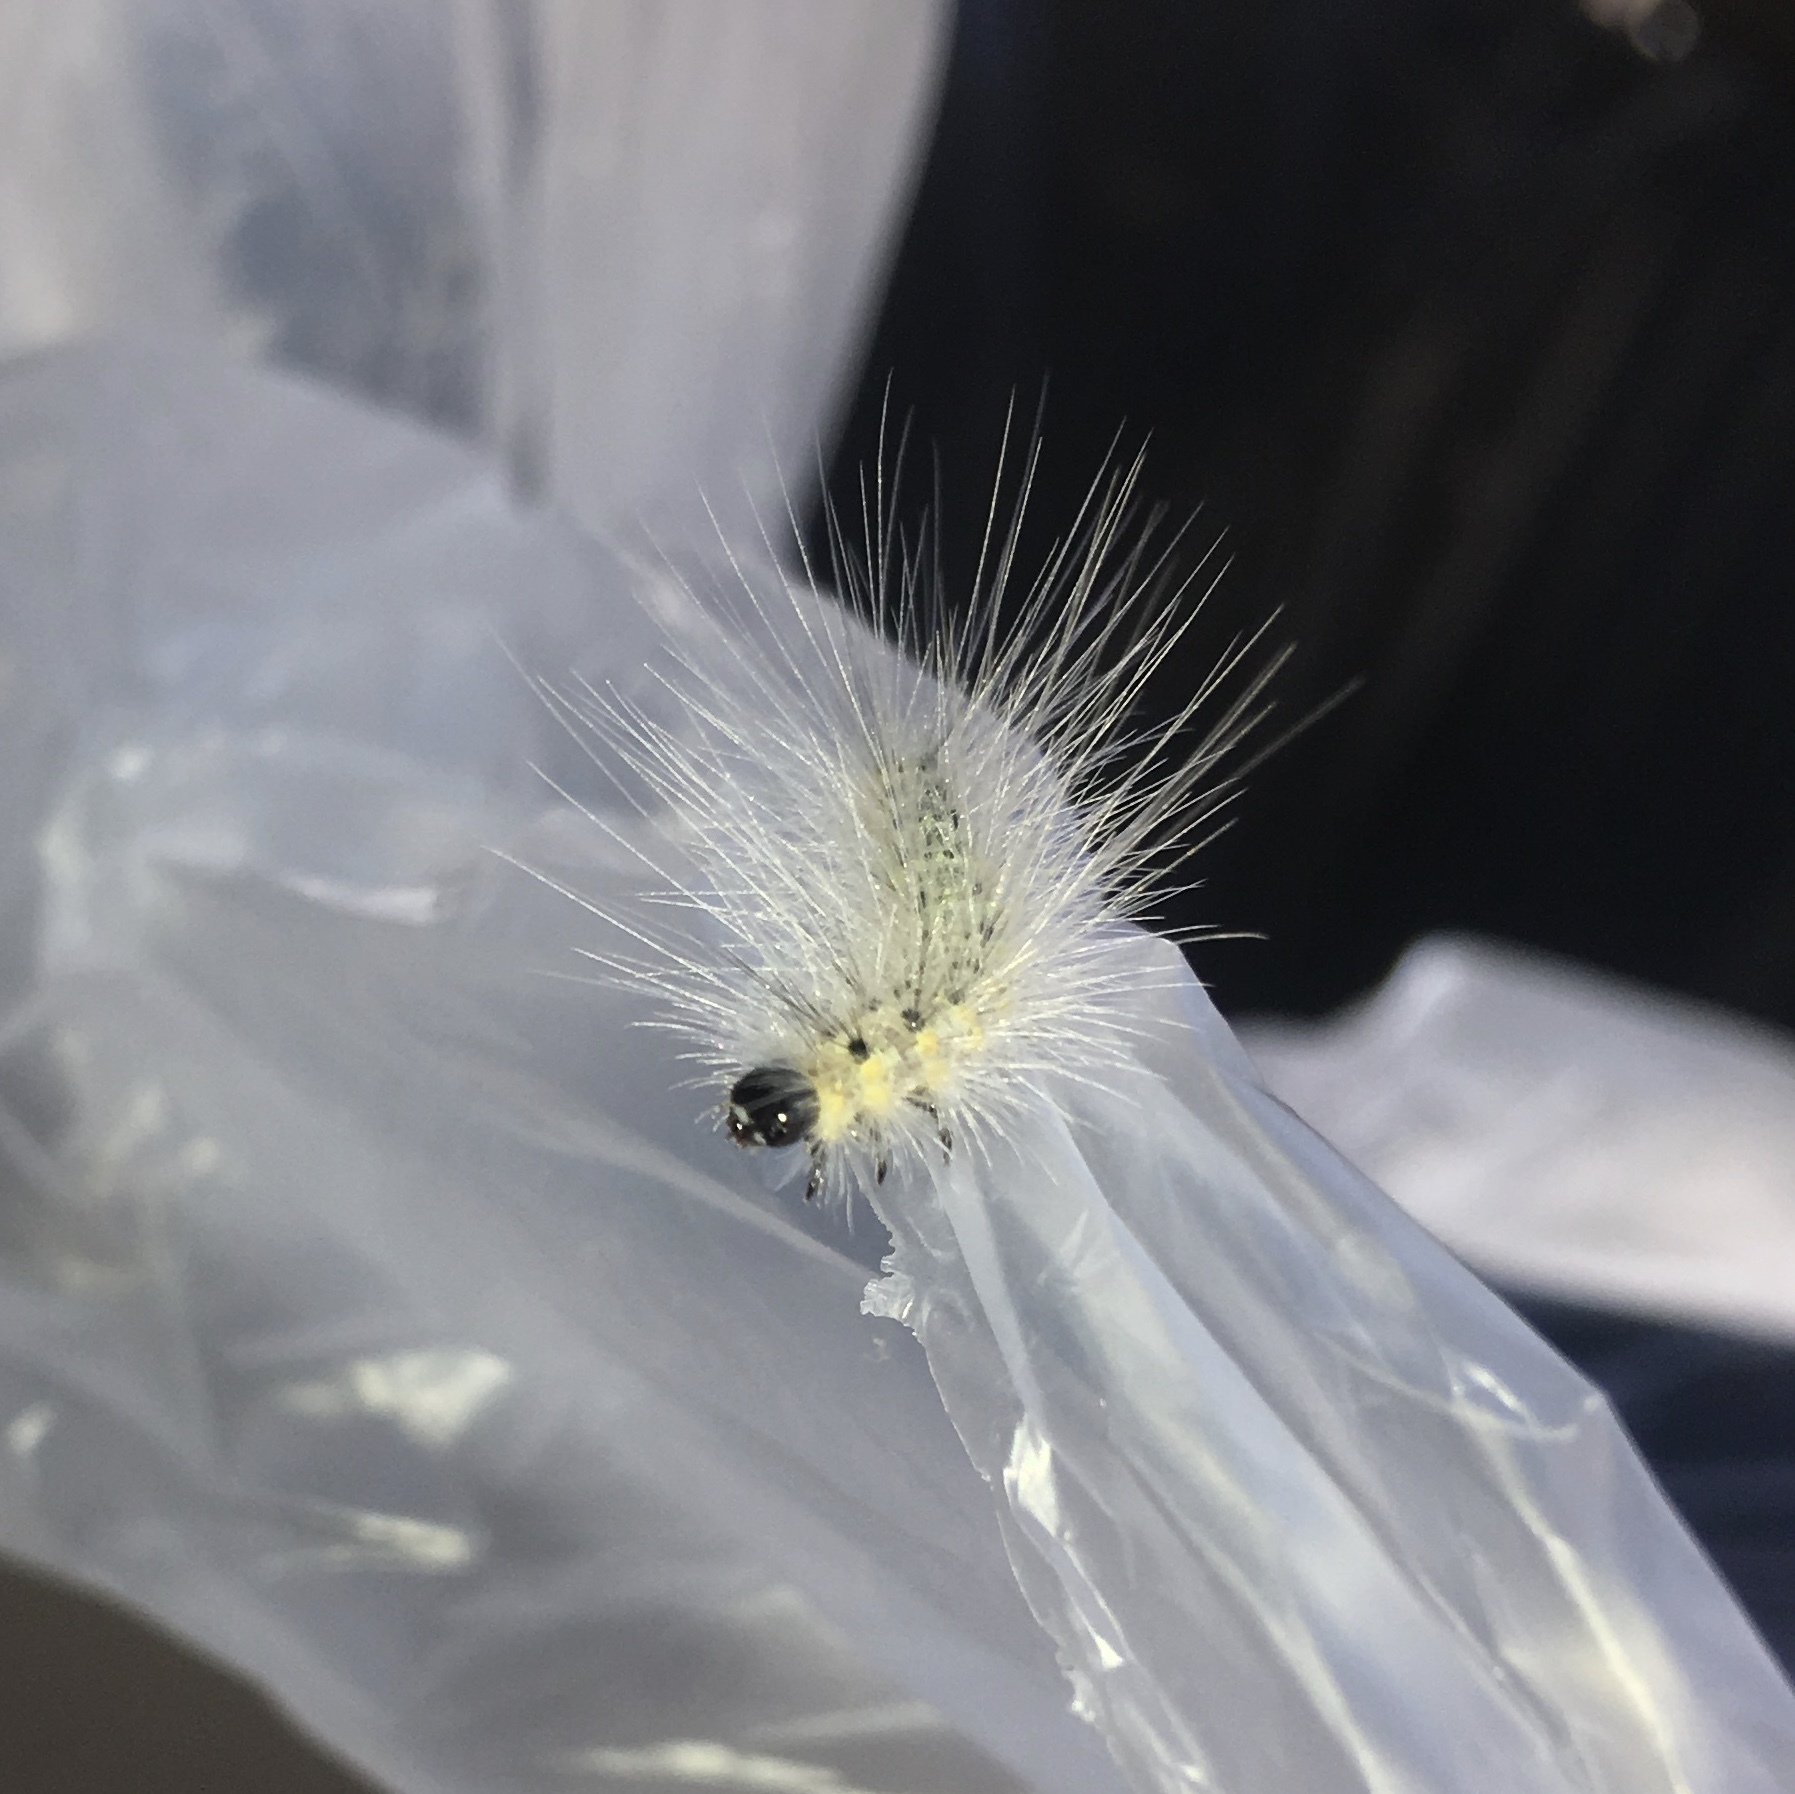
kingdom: Animalia
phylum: Arthropoda
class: Insecta
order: Lepidoptera
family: Erebidae
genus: Hyphantria
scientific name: Hyphantria cunea
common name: American white moth
